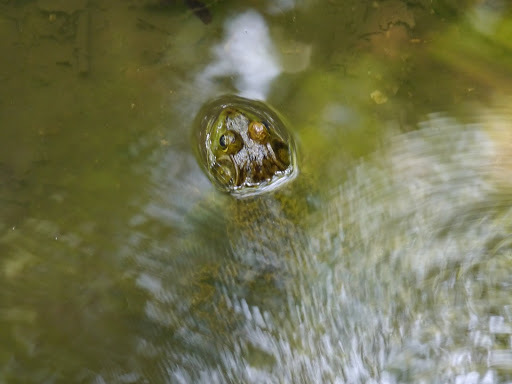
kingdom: Animalia
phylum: Chordata
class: Amphibia
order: Anura
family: Ranidae
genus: Lithobates
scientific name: Lithobates catesbeianus
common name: American bullfrog
